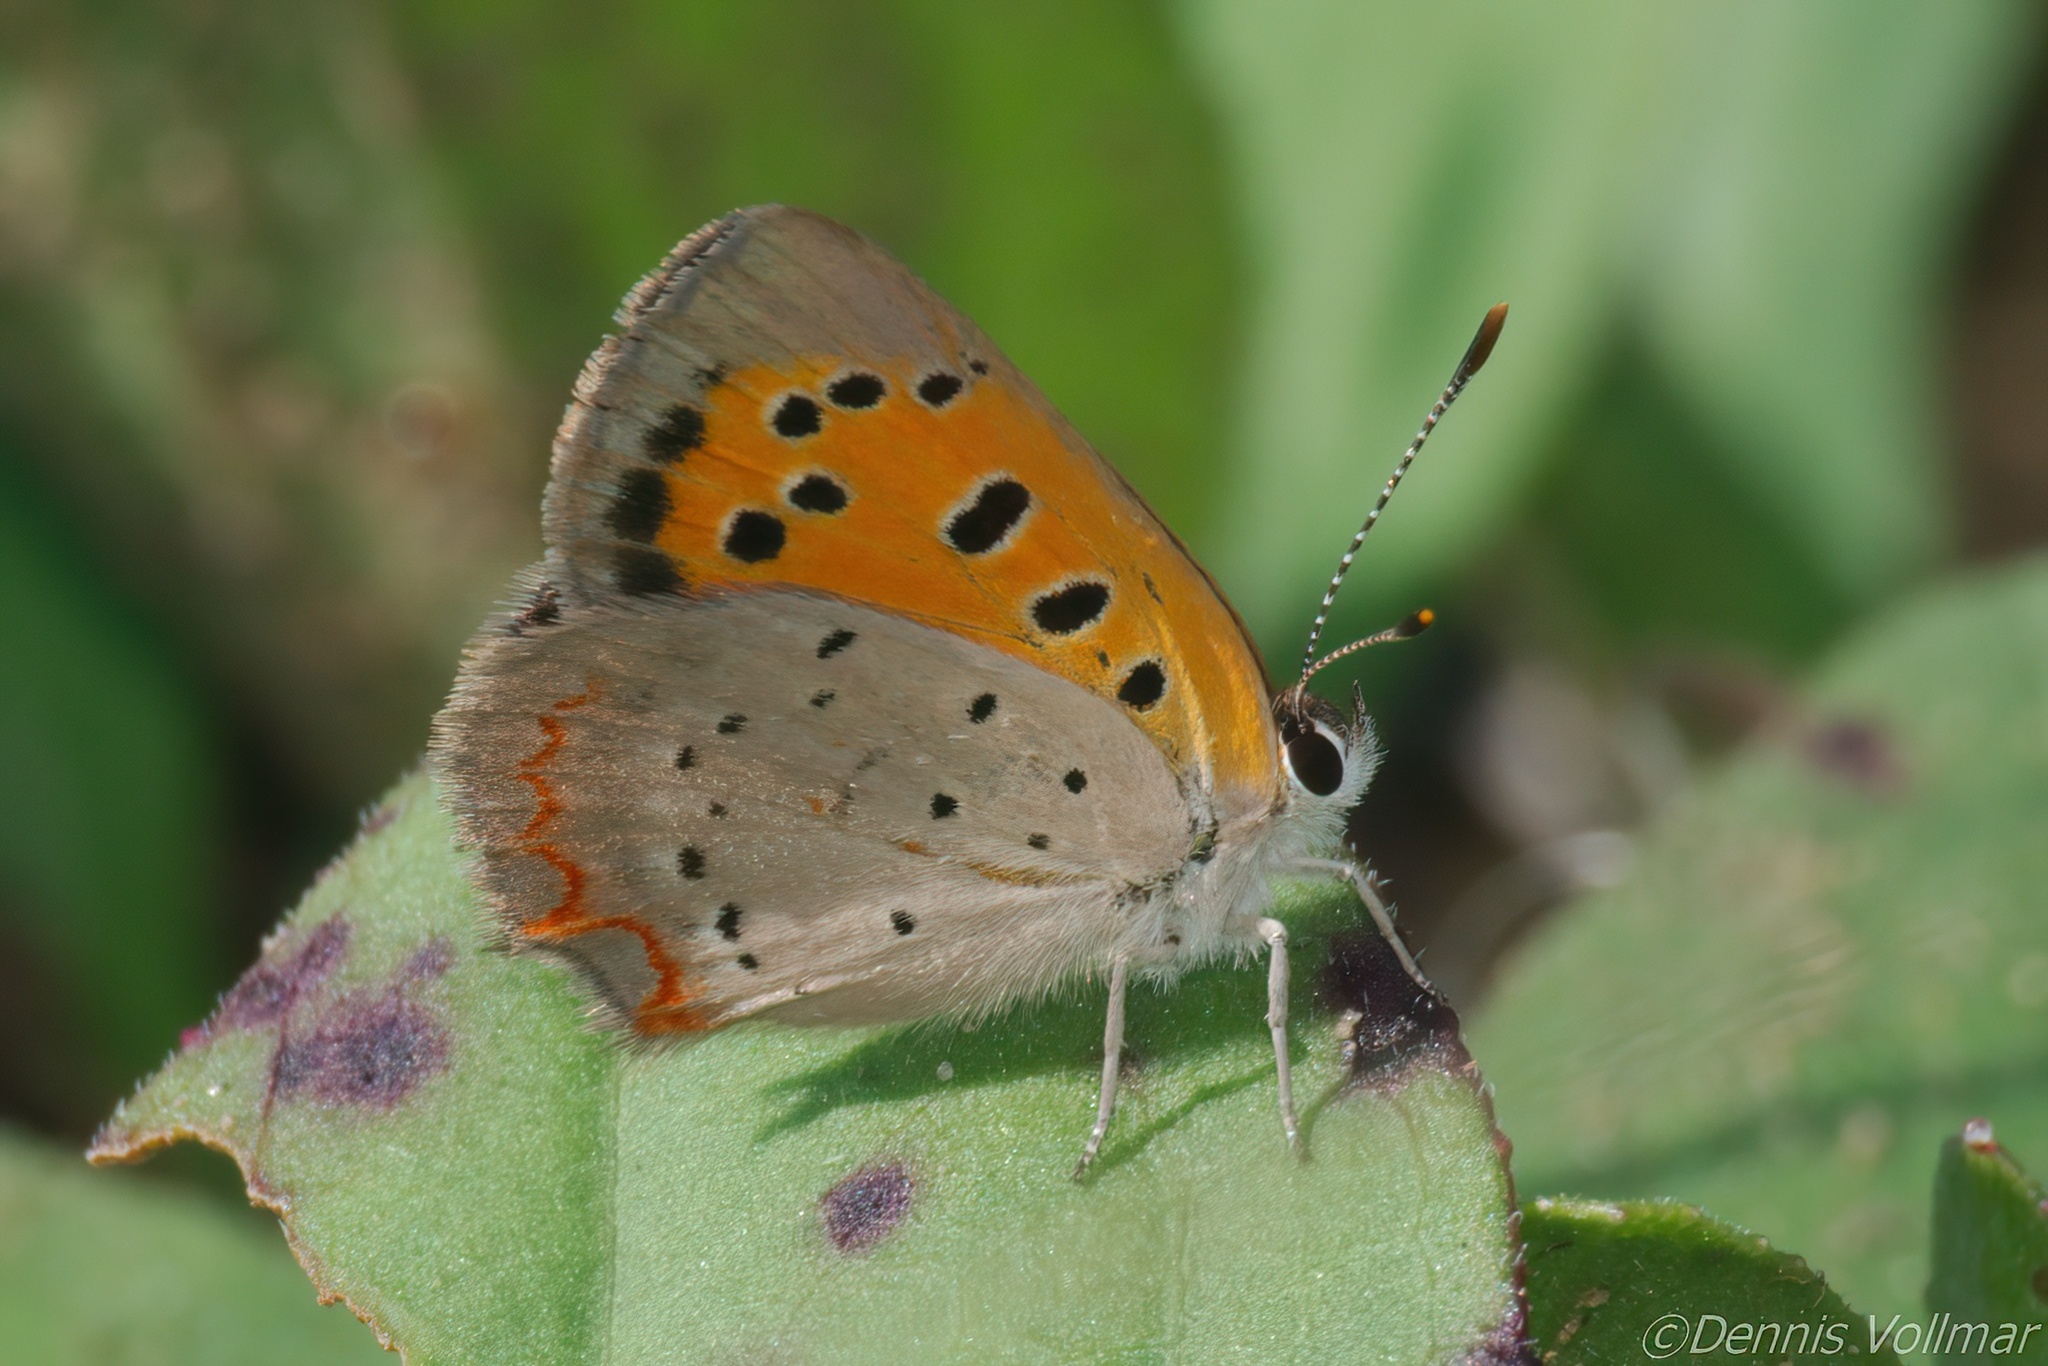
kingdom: Animalia
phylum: Arthropoda
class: Insecta
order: Lepidoptera
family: Lycaenidae
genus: Lycaena
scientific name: Lycaena hypophlaeas
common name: American copper
